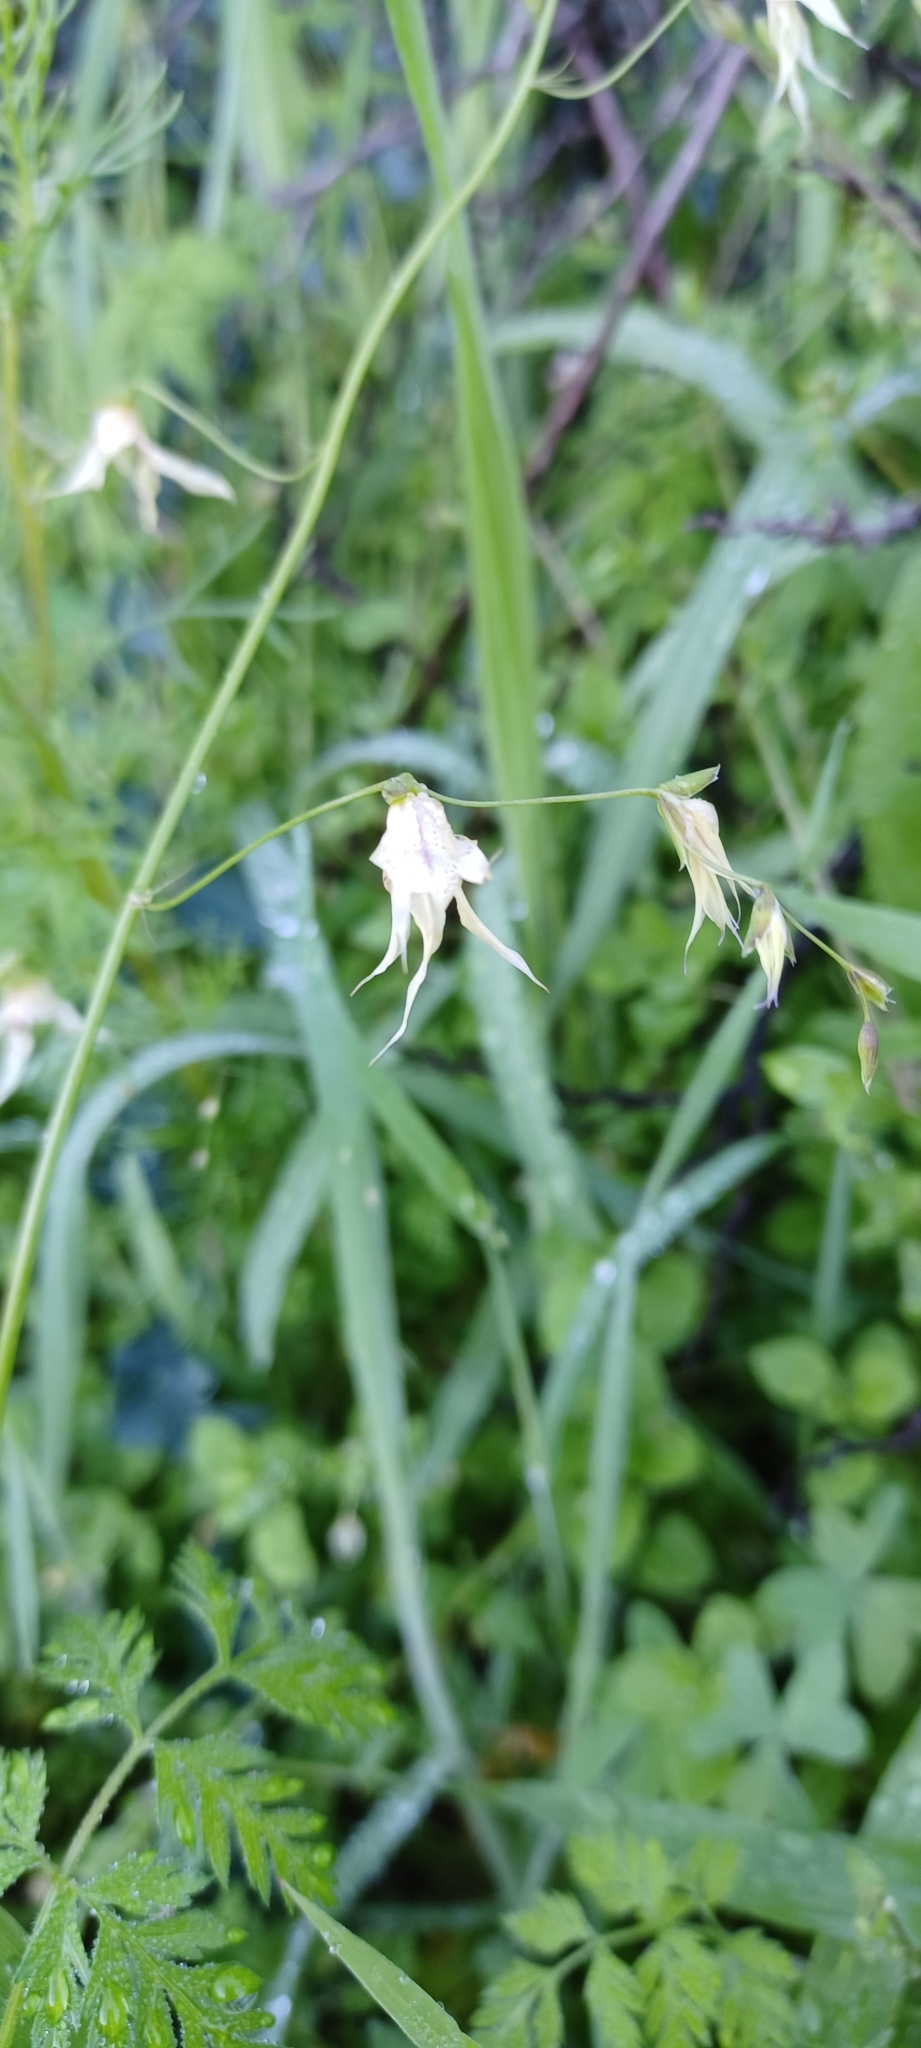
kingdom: Plantae
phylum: Tracheophyta
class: Liliopsida
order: Asparagales
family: Iridaceae
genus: Melasphaerula
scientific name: Melasphaerula graminea
